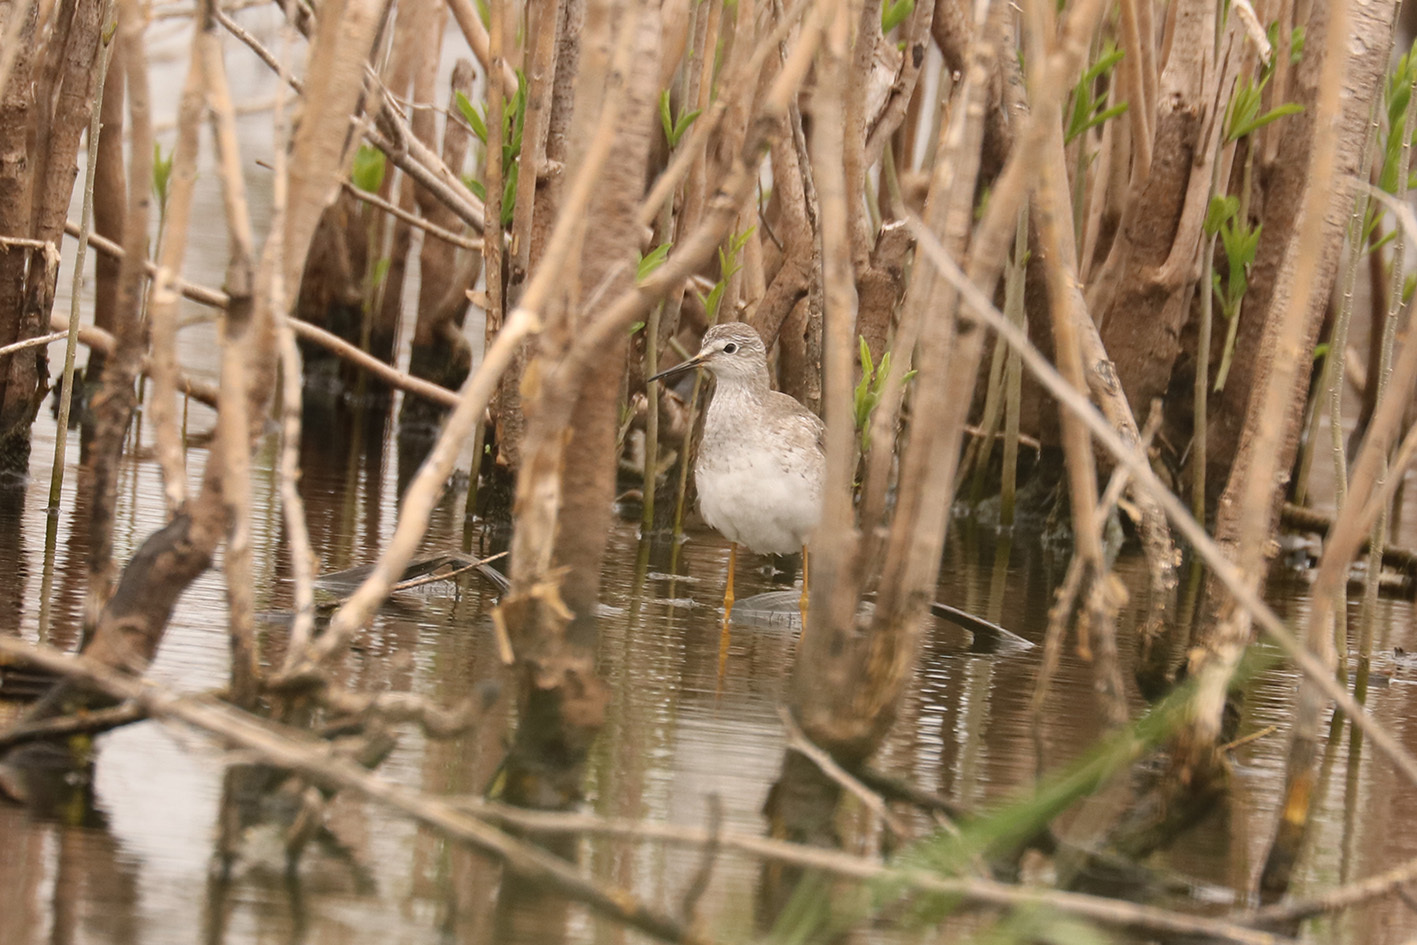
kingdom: Animalia
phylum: Chordata
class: Aves
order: Charadriiformes
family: Scolopacidae
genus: Tringa
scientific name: Tringa flavipes
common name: Lesser yellowlegs
